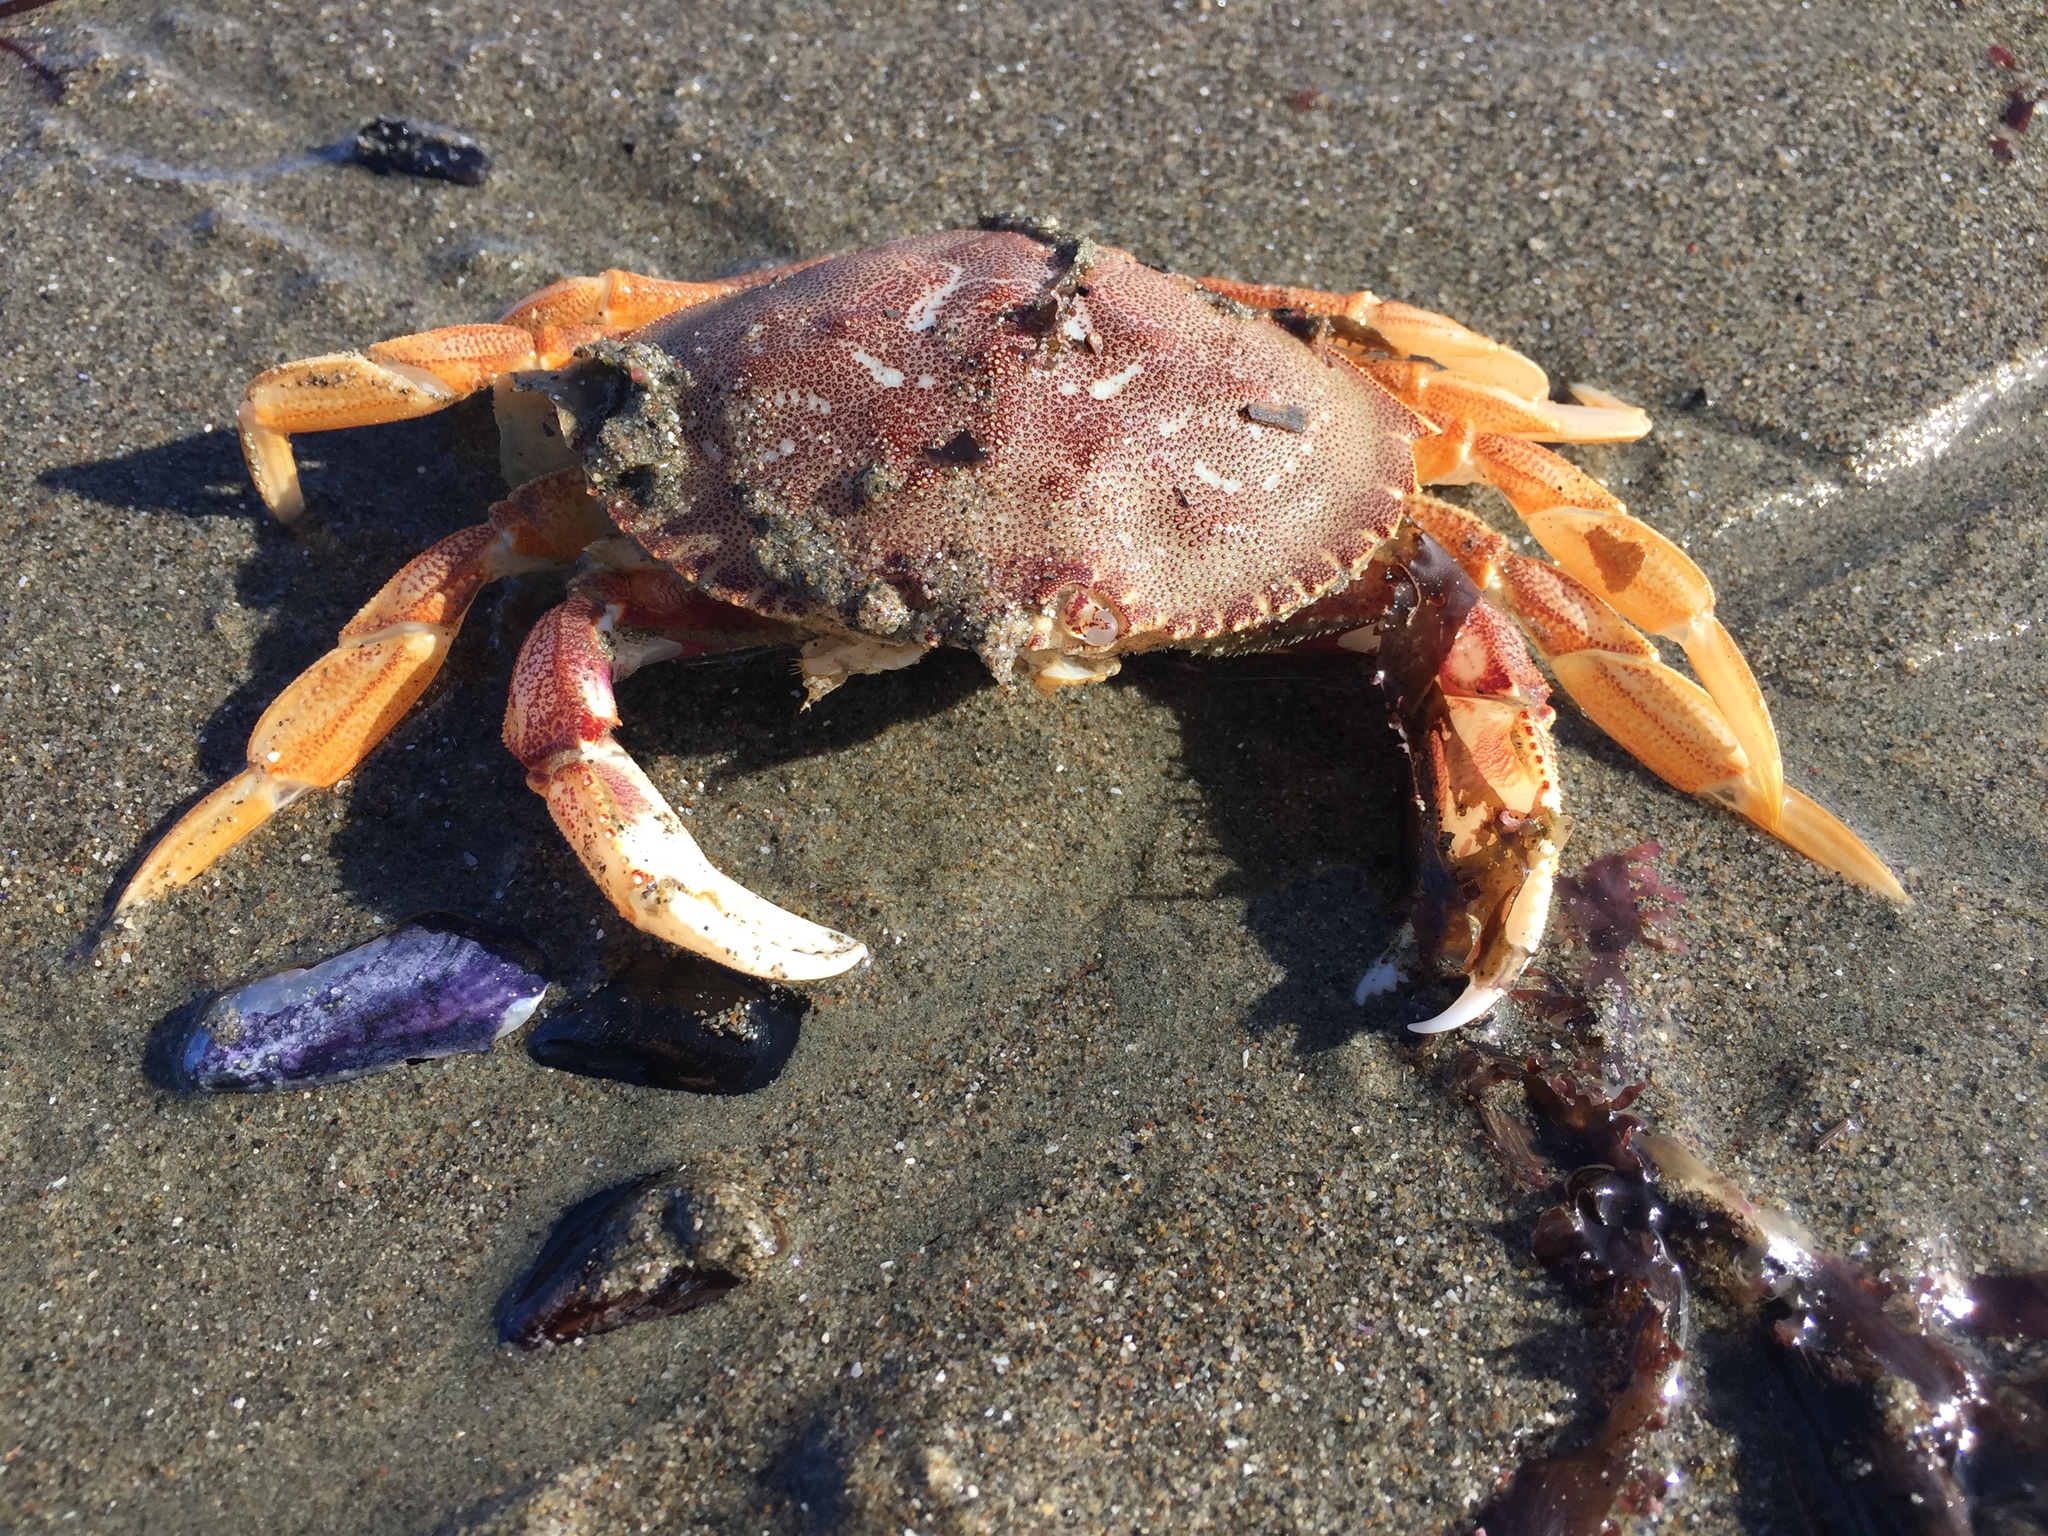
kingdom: Animalia
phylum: Arthropoda
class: Malacostraca
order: Decapoda
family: Cancridae
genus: Metacarcinus
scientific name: Metacarcinus magister
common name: Californian crab
